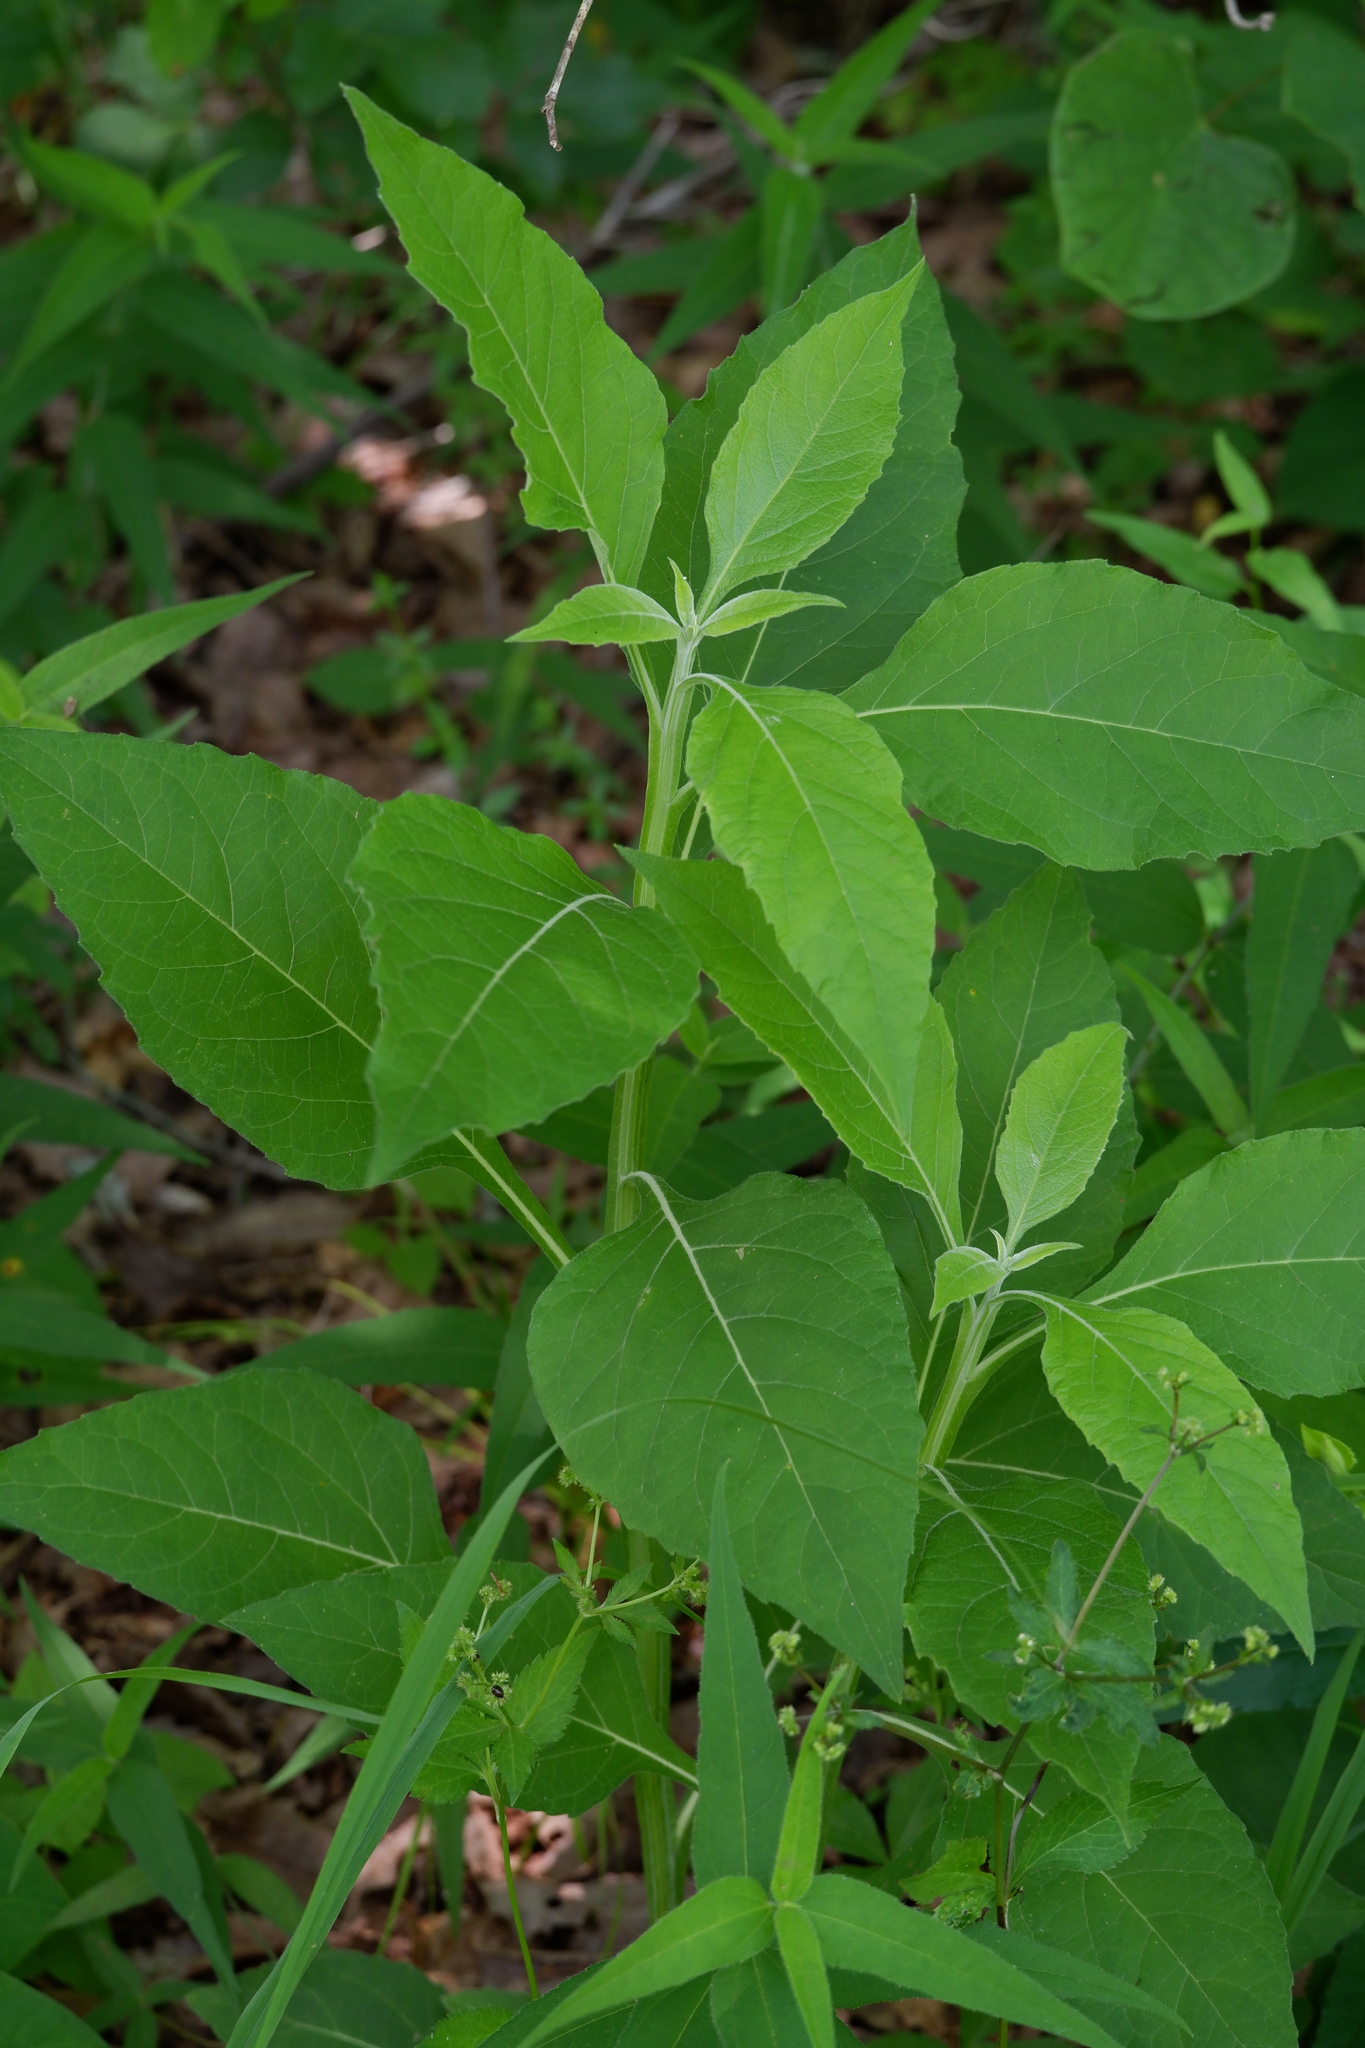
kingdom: Plantae
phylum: Tracheophyta
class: Magnoliopsida
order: Asterales
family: Asteraceae
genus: Verbesina
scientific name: Verbesina virginica
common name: Frostweed
